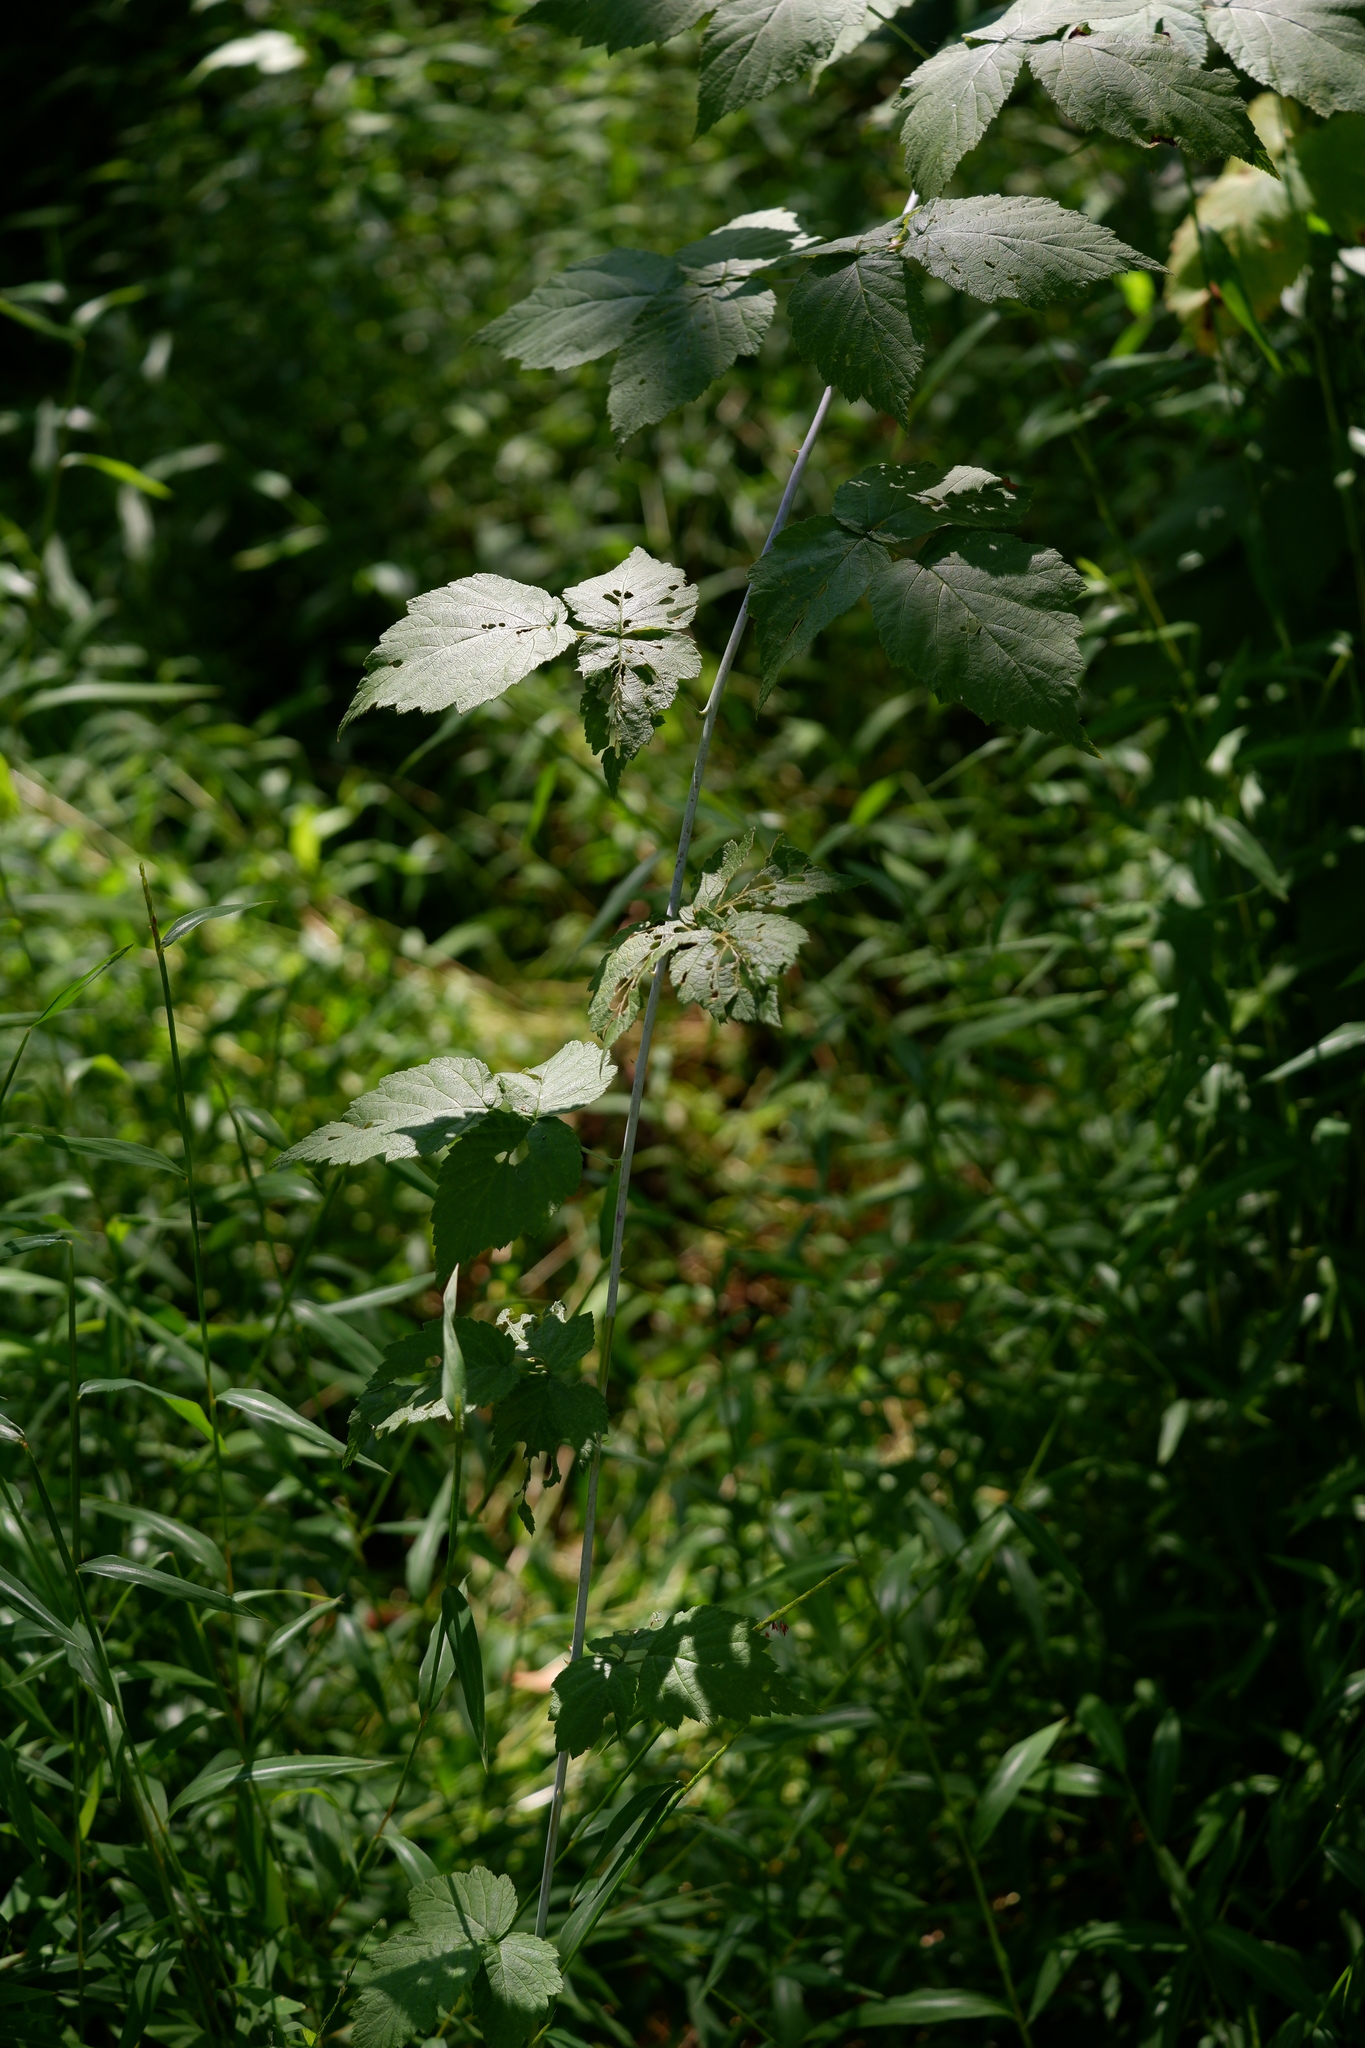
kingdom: Plantae
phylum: Tracheophyta
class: Magnoliopsida
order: Rosales
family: Rosaceae
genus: Rubus
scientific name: Rubus occidentalis
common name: Black raspberry
